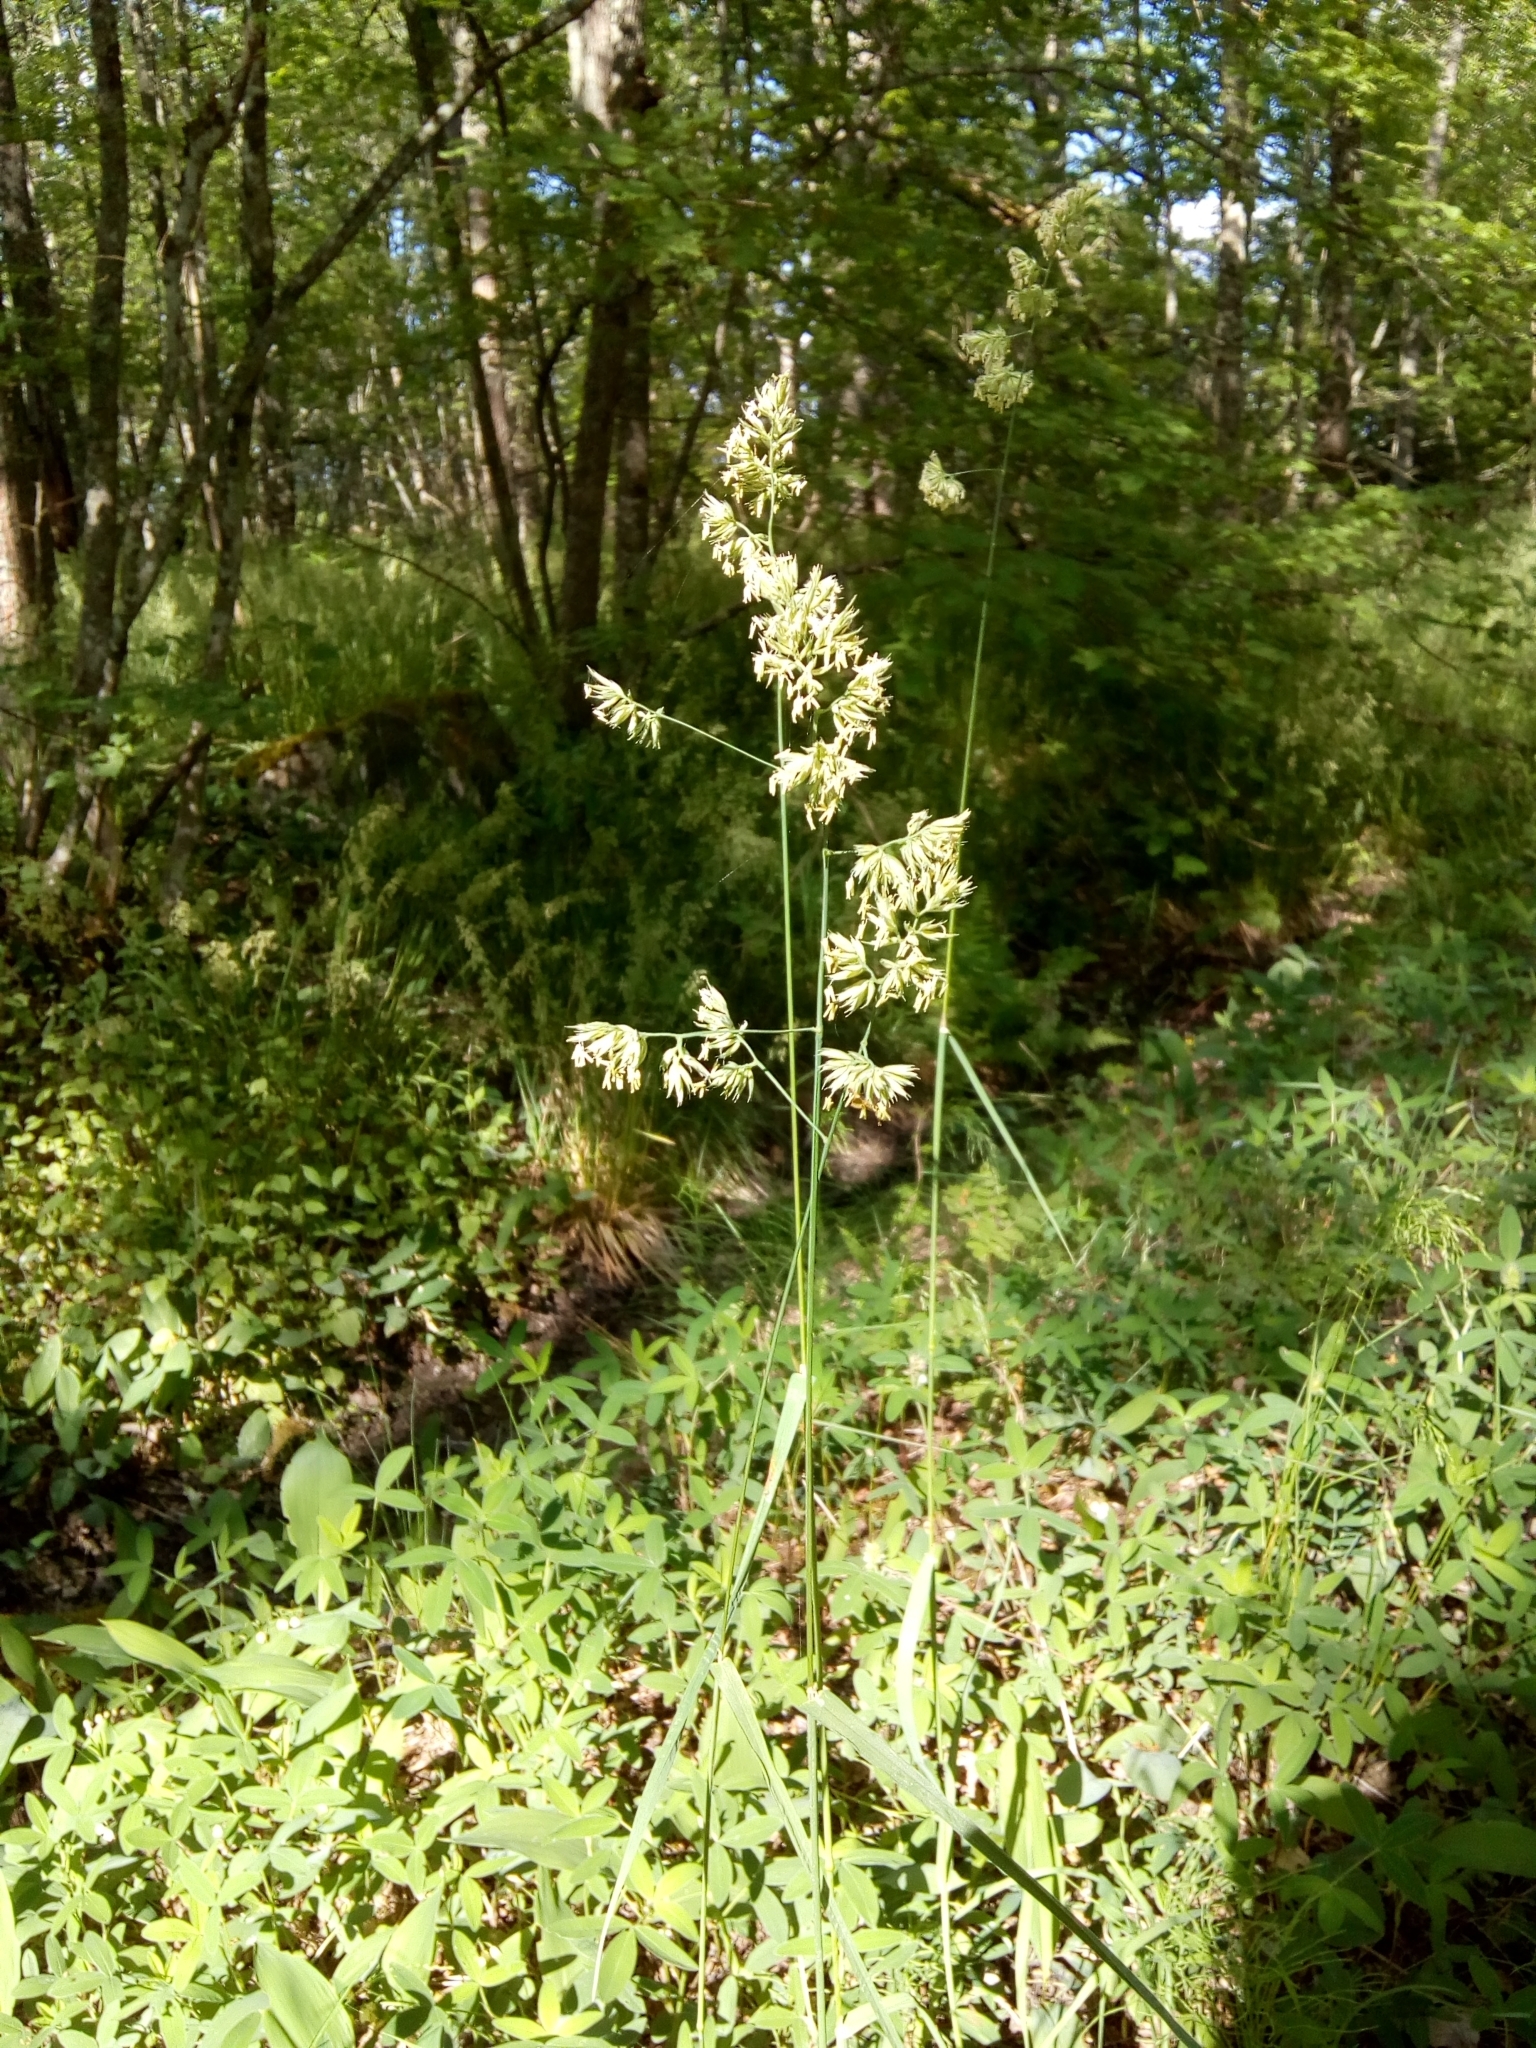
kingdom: Plantae
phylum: Tracheophyta
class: Liliopsida
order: Poales
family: Poaceae
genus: Dactylis
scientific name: Dactylis glomerata
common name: Orchardgrass
